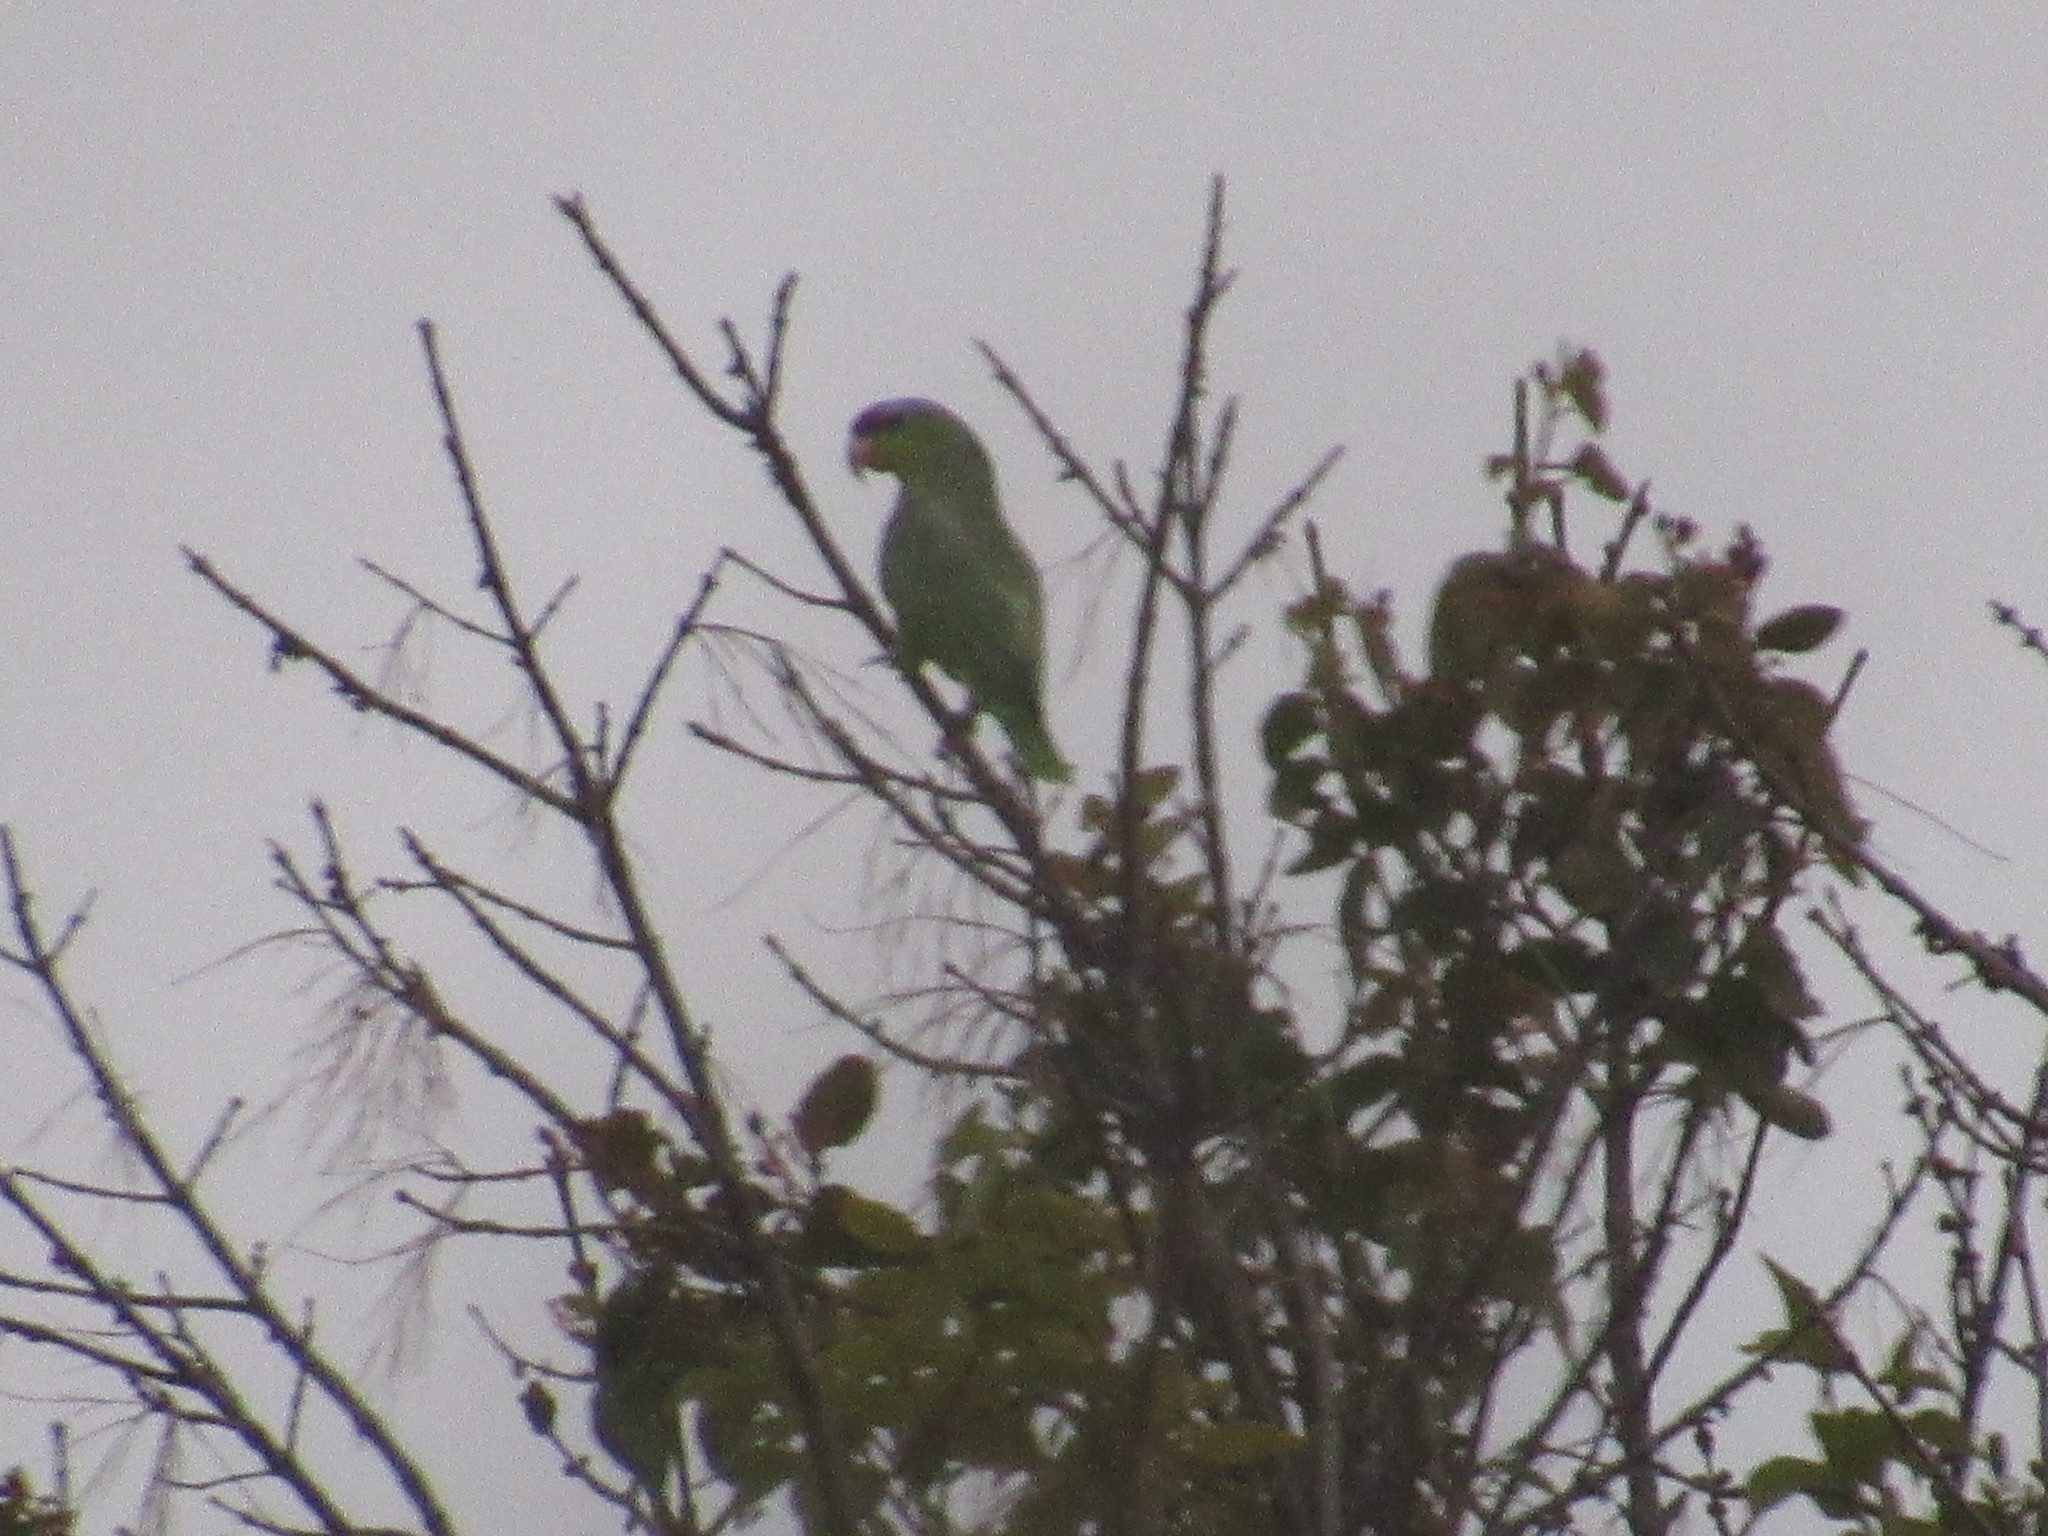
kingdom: Animalia
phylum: Chordata
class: Aves
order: Psittaciformes
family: Psittacidae
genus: Amazona
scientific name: Amazona finschi
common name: Lilac-crowned amazon
